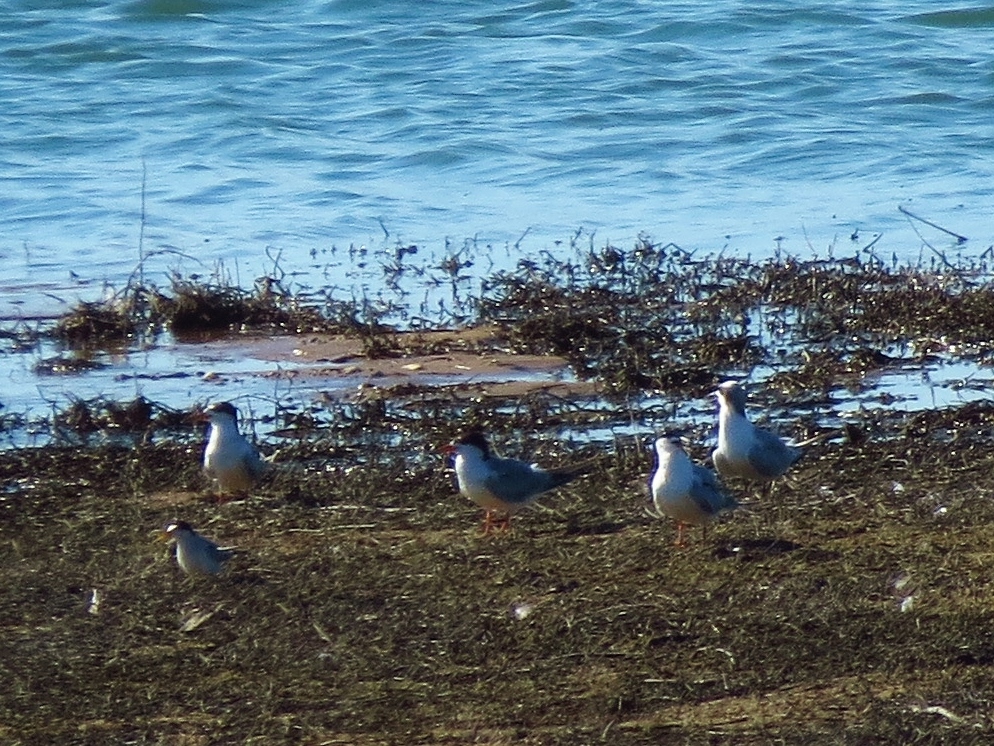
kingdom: Animalia
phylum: Chordata
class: Aves
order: Charadriiformes
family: Laridae
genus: Sterna
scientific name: Sterna forsteri
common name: Forster's tern
